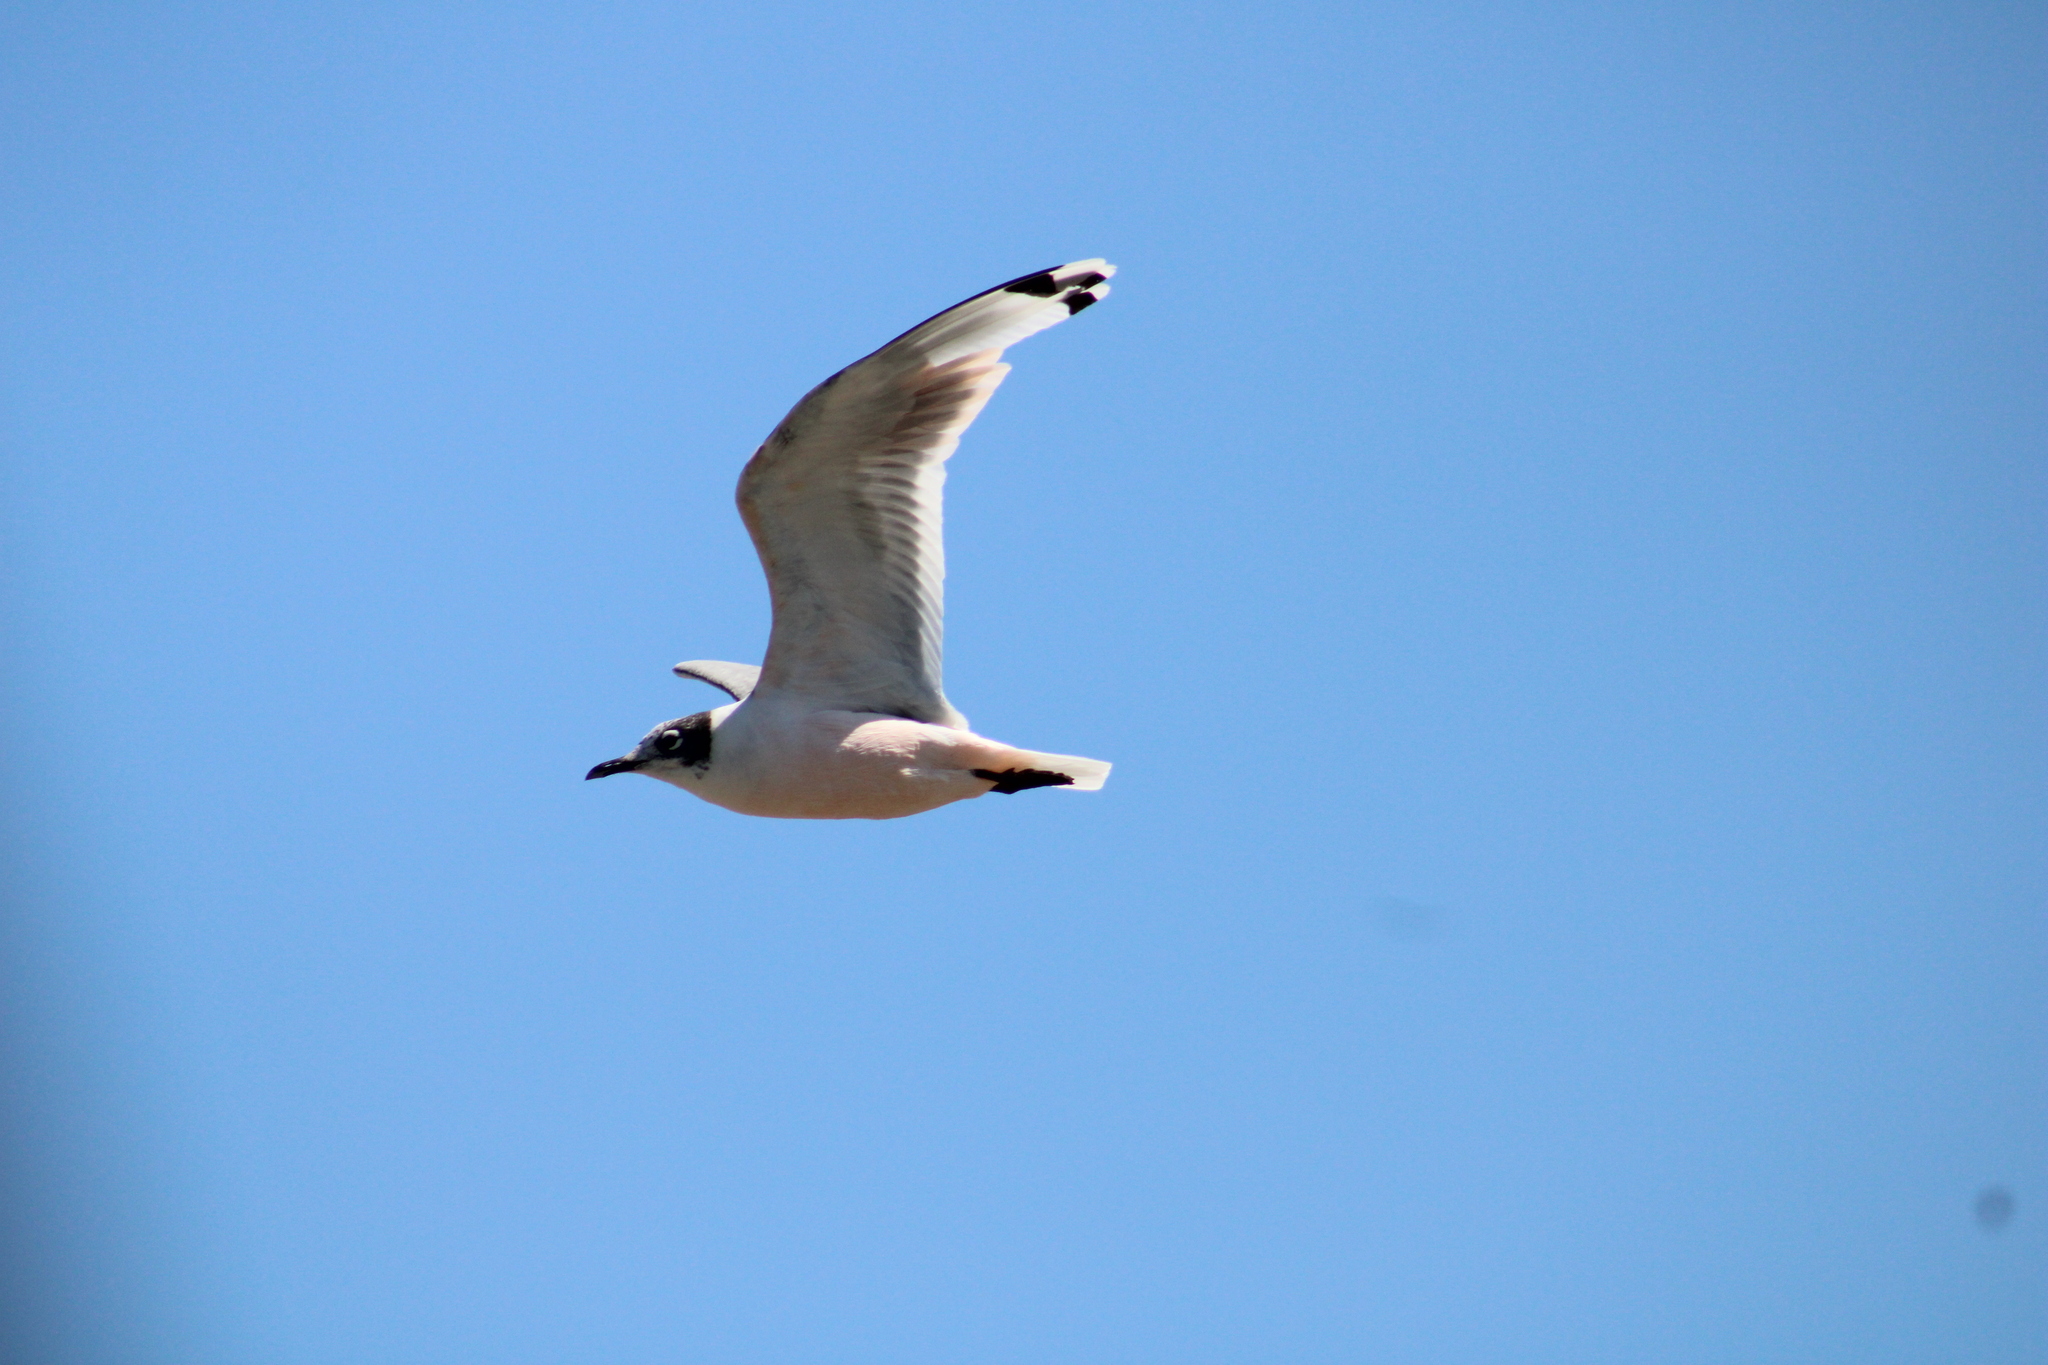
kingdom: Animalia
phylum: Chordata
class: Aves
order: Charadriiformes
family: Laridae
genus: Leucophaeus
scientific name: Leucophaeus pipixcan
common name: Franklin's gull
